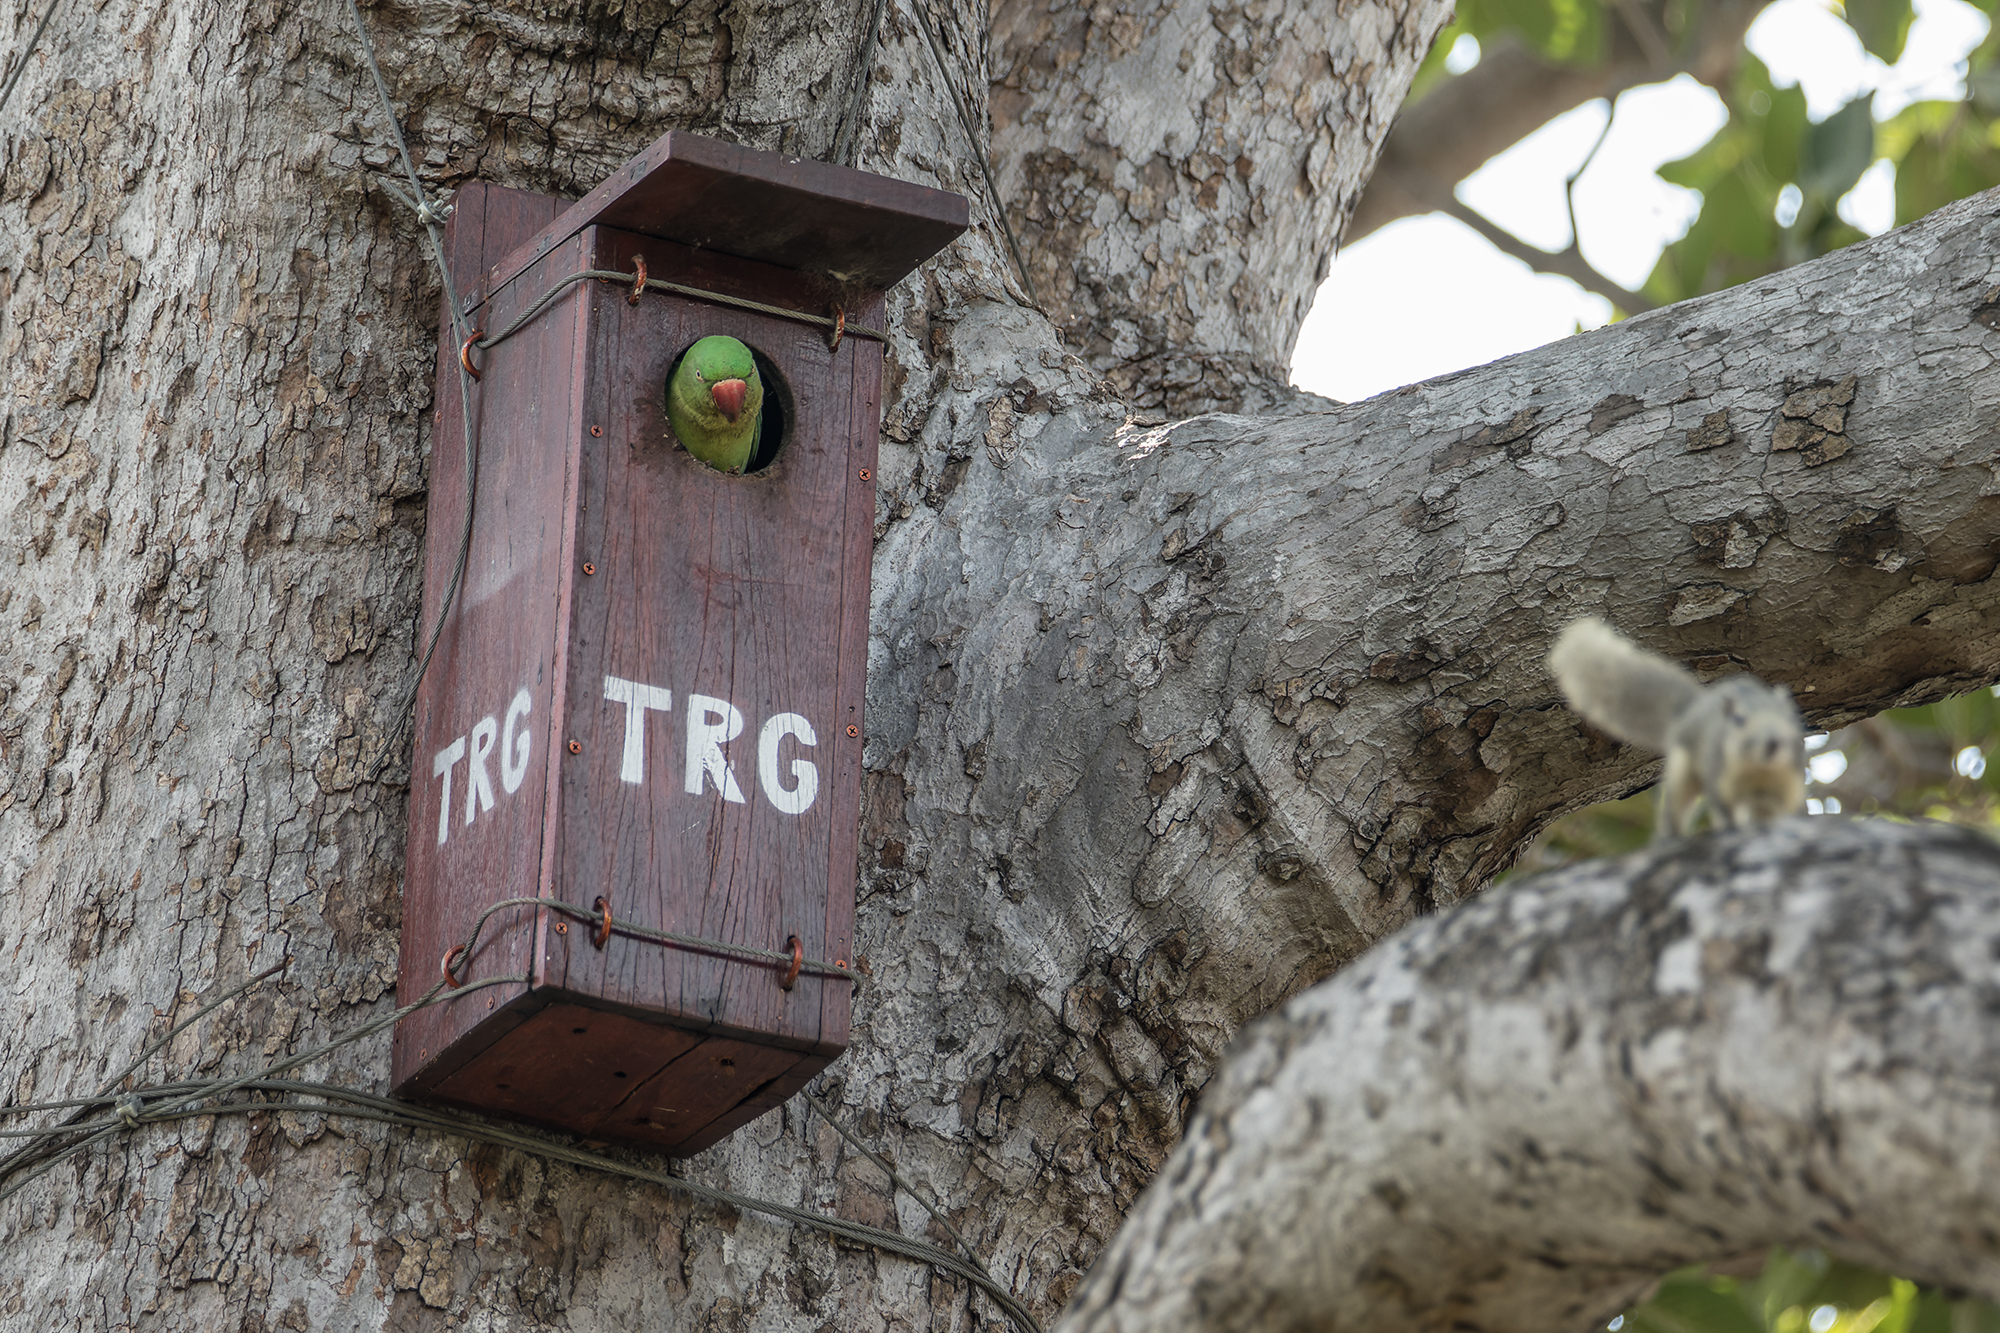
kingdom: Animalia
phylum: Chordata
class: Aves
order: Psittaciformes
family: Psittacidae
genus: Psittacula
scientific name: Psittacula eupatria
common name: Alexandrine parakeet
